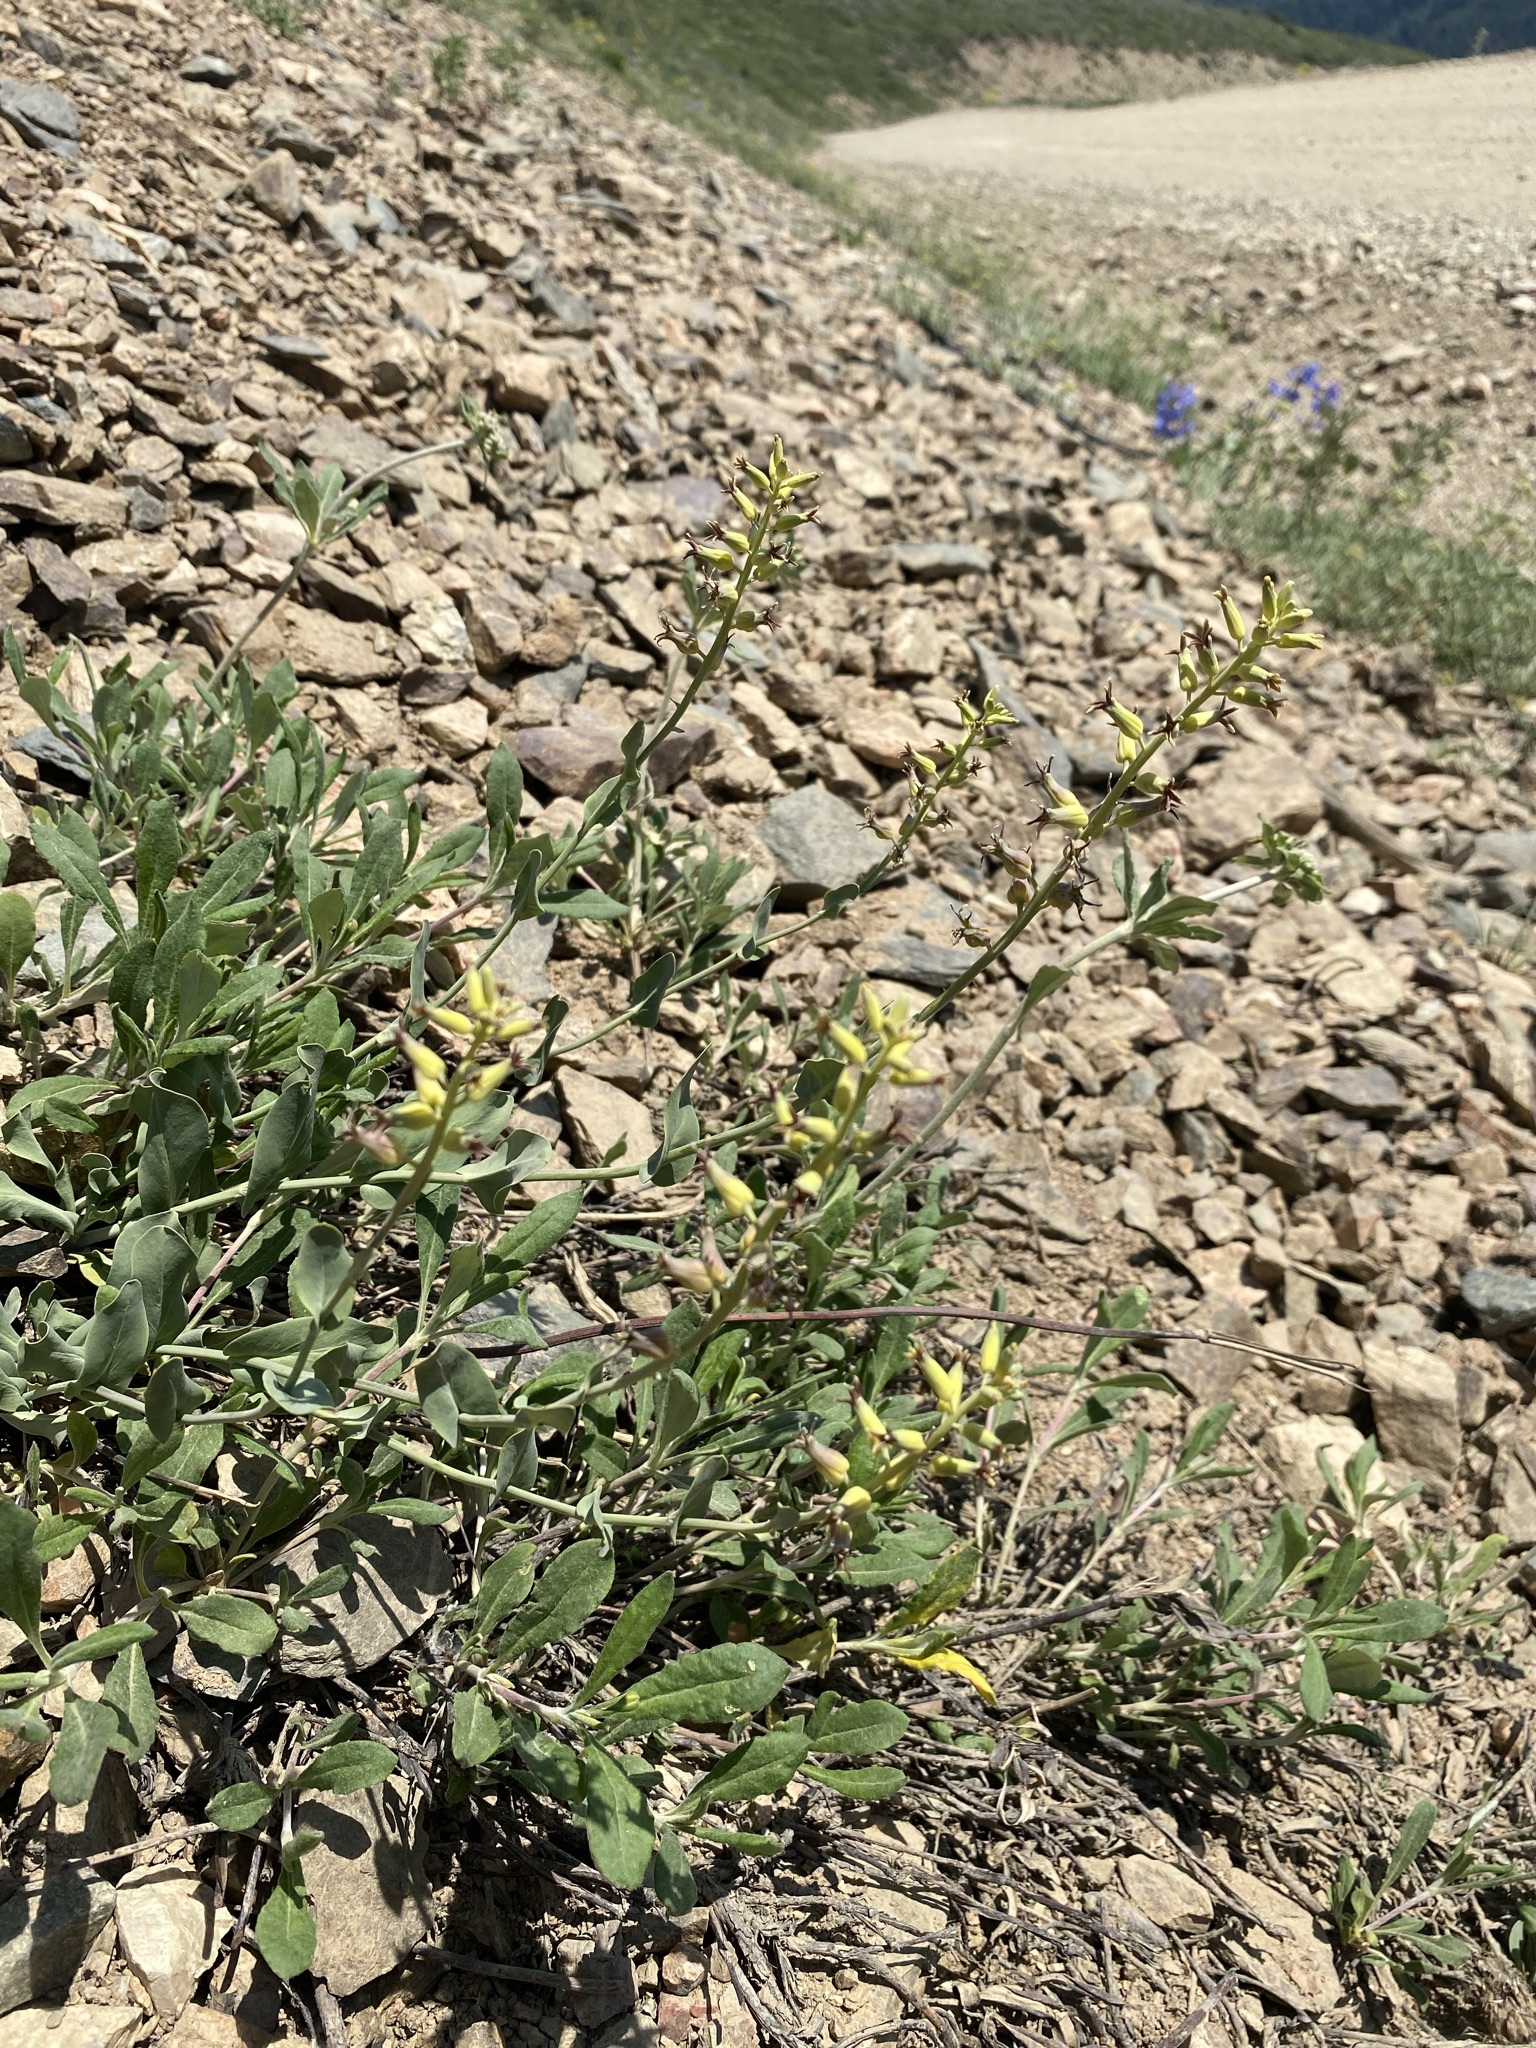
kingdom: Plantae
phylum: Tracheophyta
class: Magnoliopsida
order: Brassicales
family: Brassicaceae
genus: Streptanthus
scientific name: Streptanthus cordatus
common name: Heart-leaf jewel-flower
